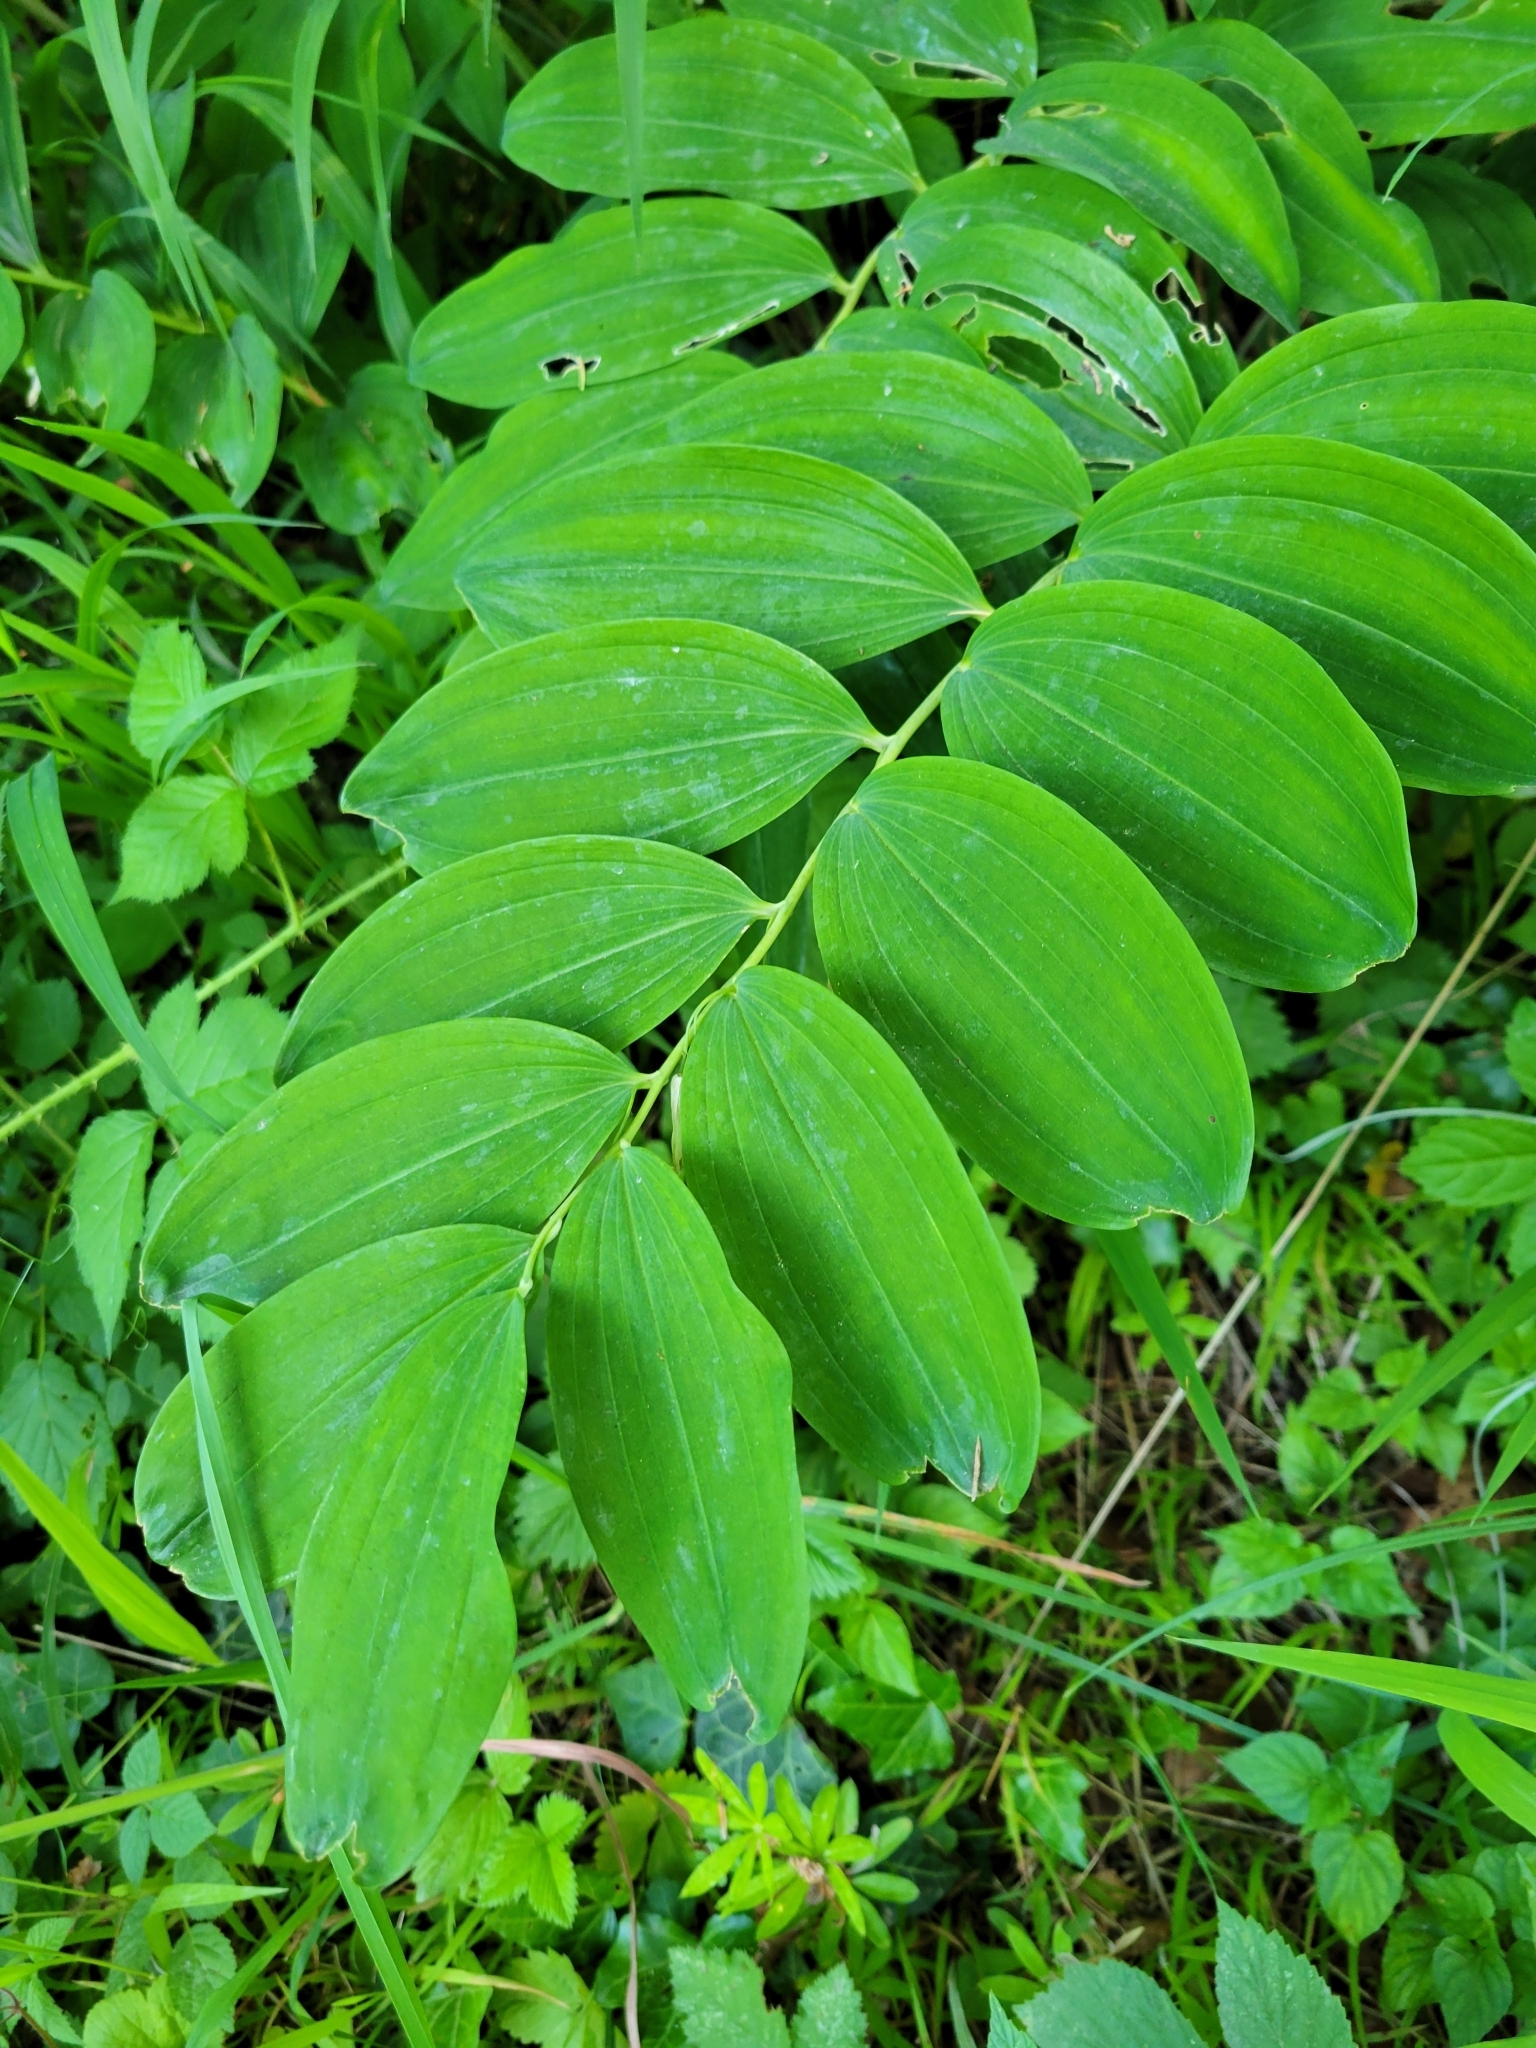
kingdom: Plantae
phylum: Tracheophyta
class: Liliopsida
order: Asparagales
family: Asparagaceae
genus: Polygonatum
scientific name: Polygonatum multiflorum
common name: Solomon's-seal
